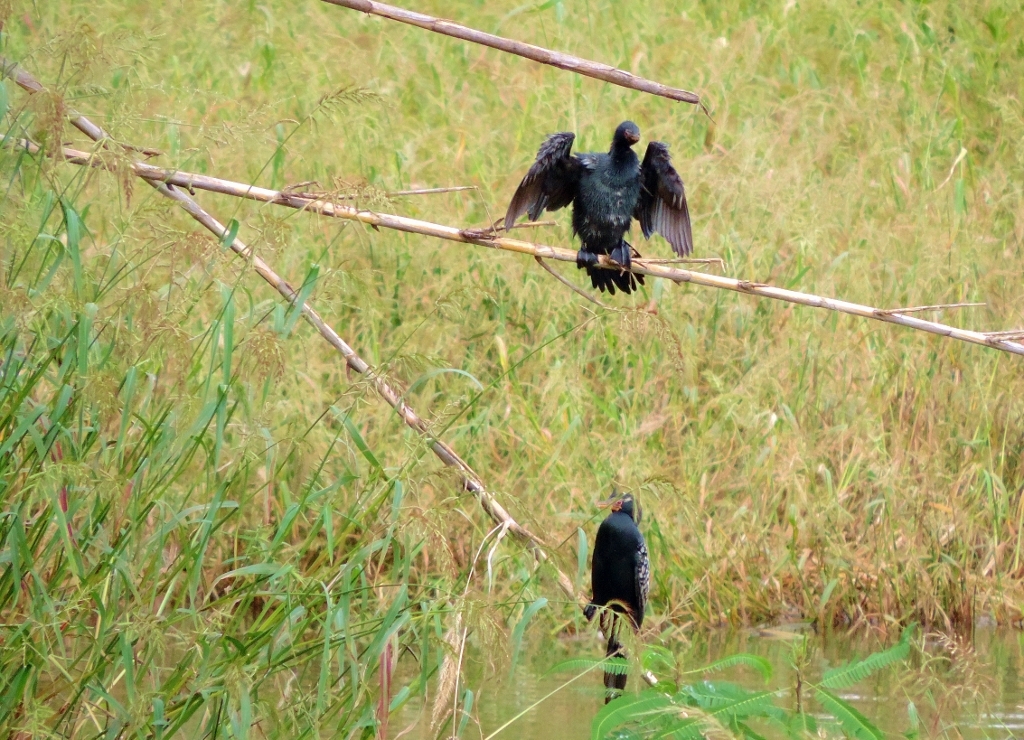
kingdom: Animalia
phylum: Chordata
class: Aves
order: Suliformes
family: Phalacrocoracidae
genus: Microcarbo
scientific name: Microcarbo africanus
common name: Long-tailed cormorant
